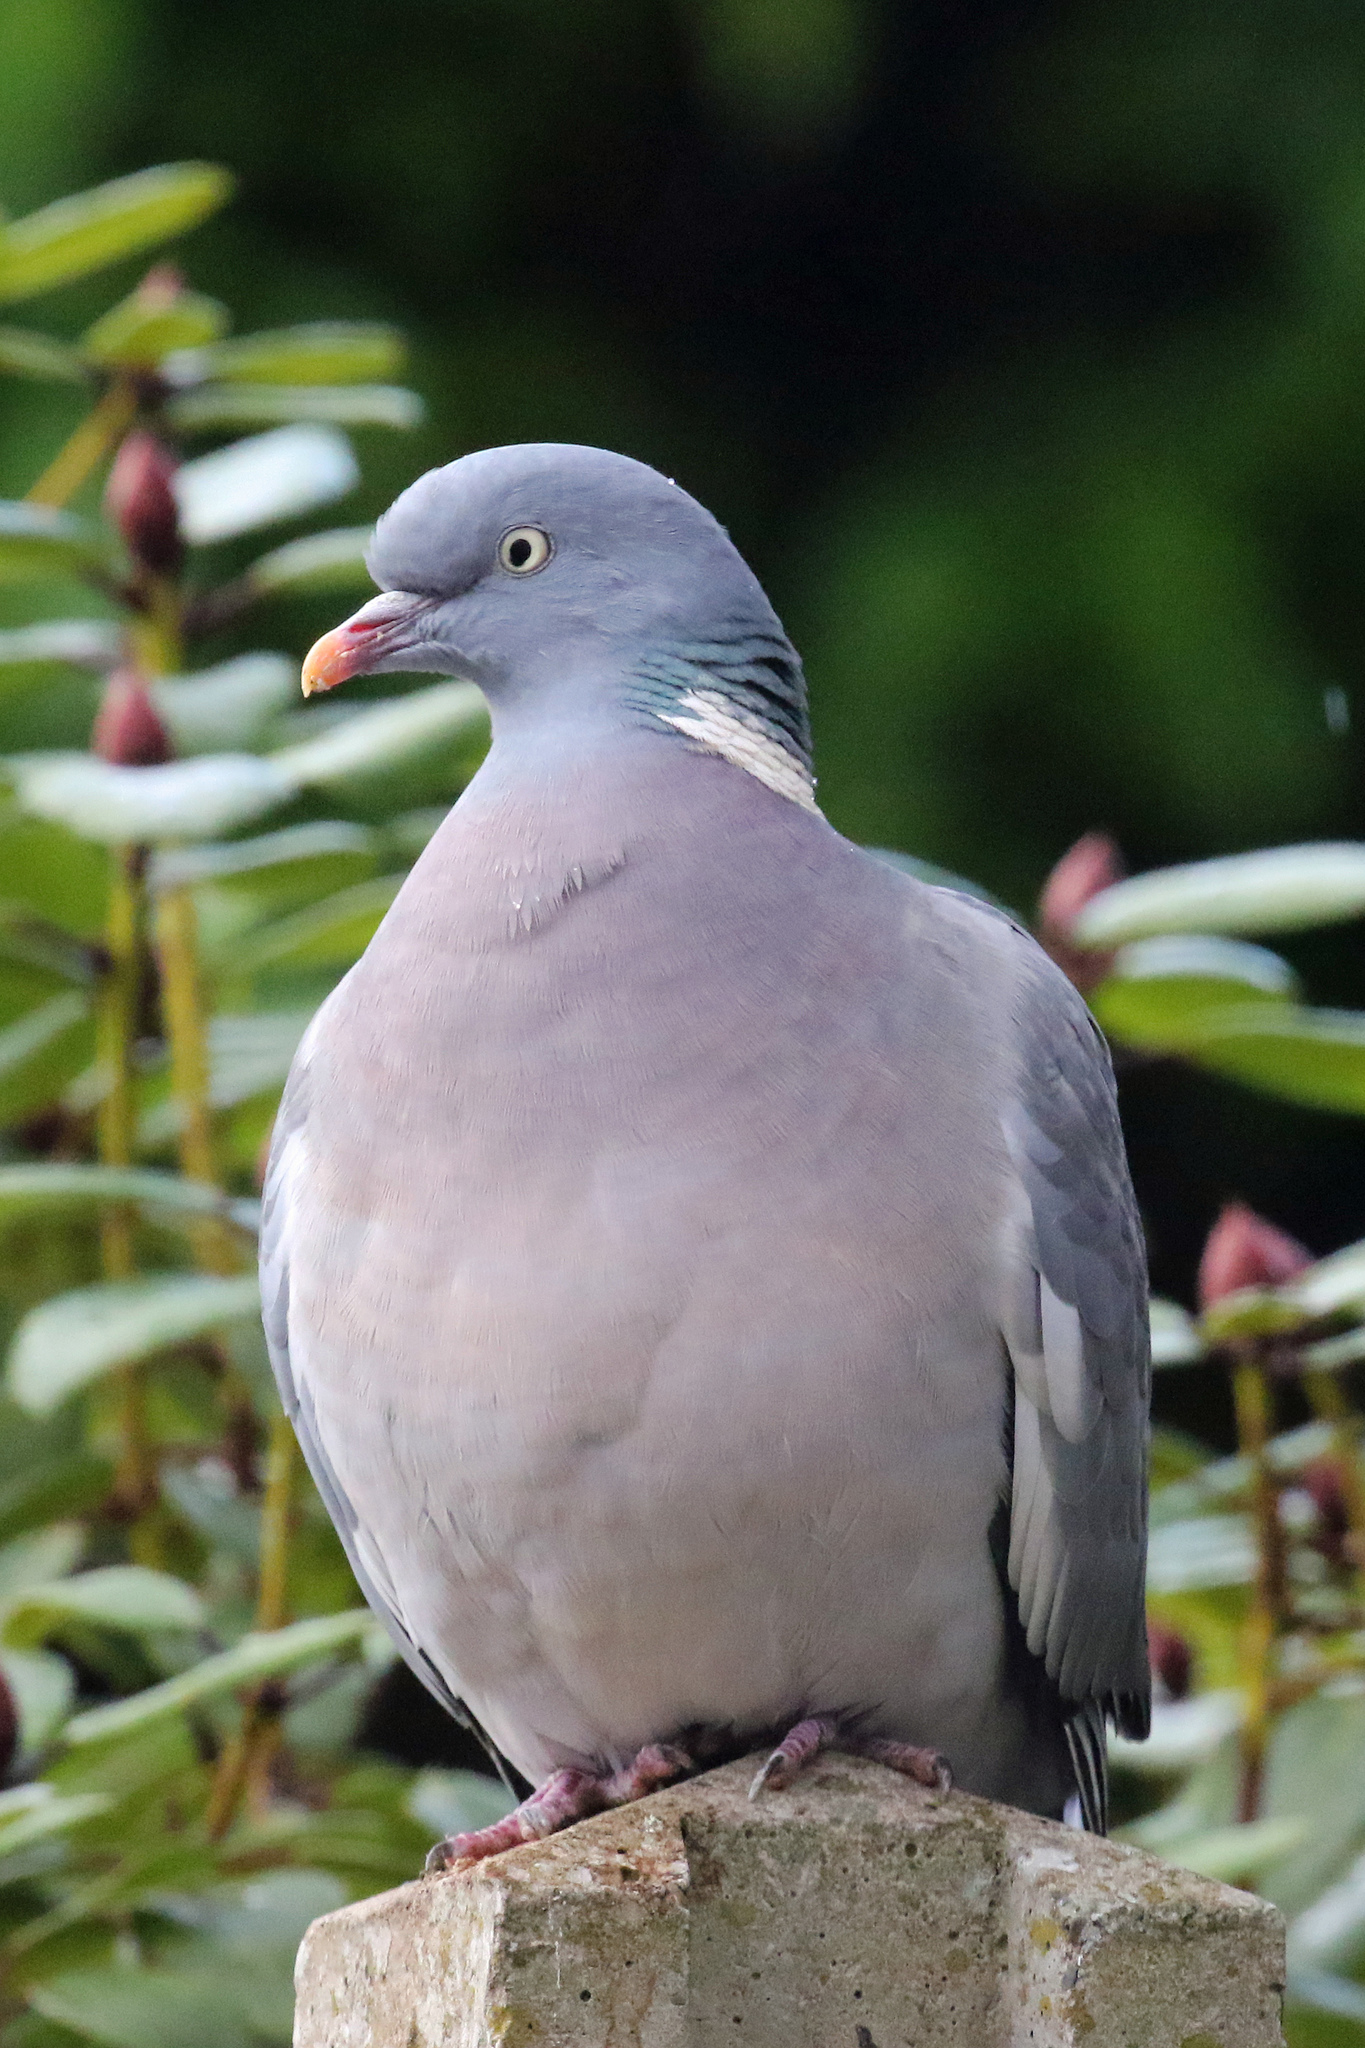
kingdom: Animalia
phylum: Chordata
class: Aves
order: Columbiformes
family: Columbidae
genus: Columba
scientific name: Columba palumbus
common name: Common wood pigeon
